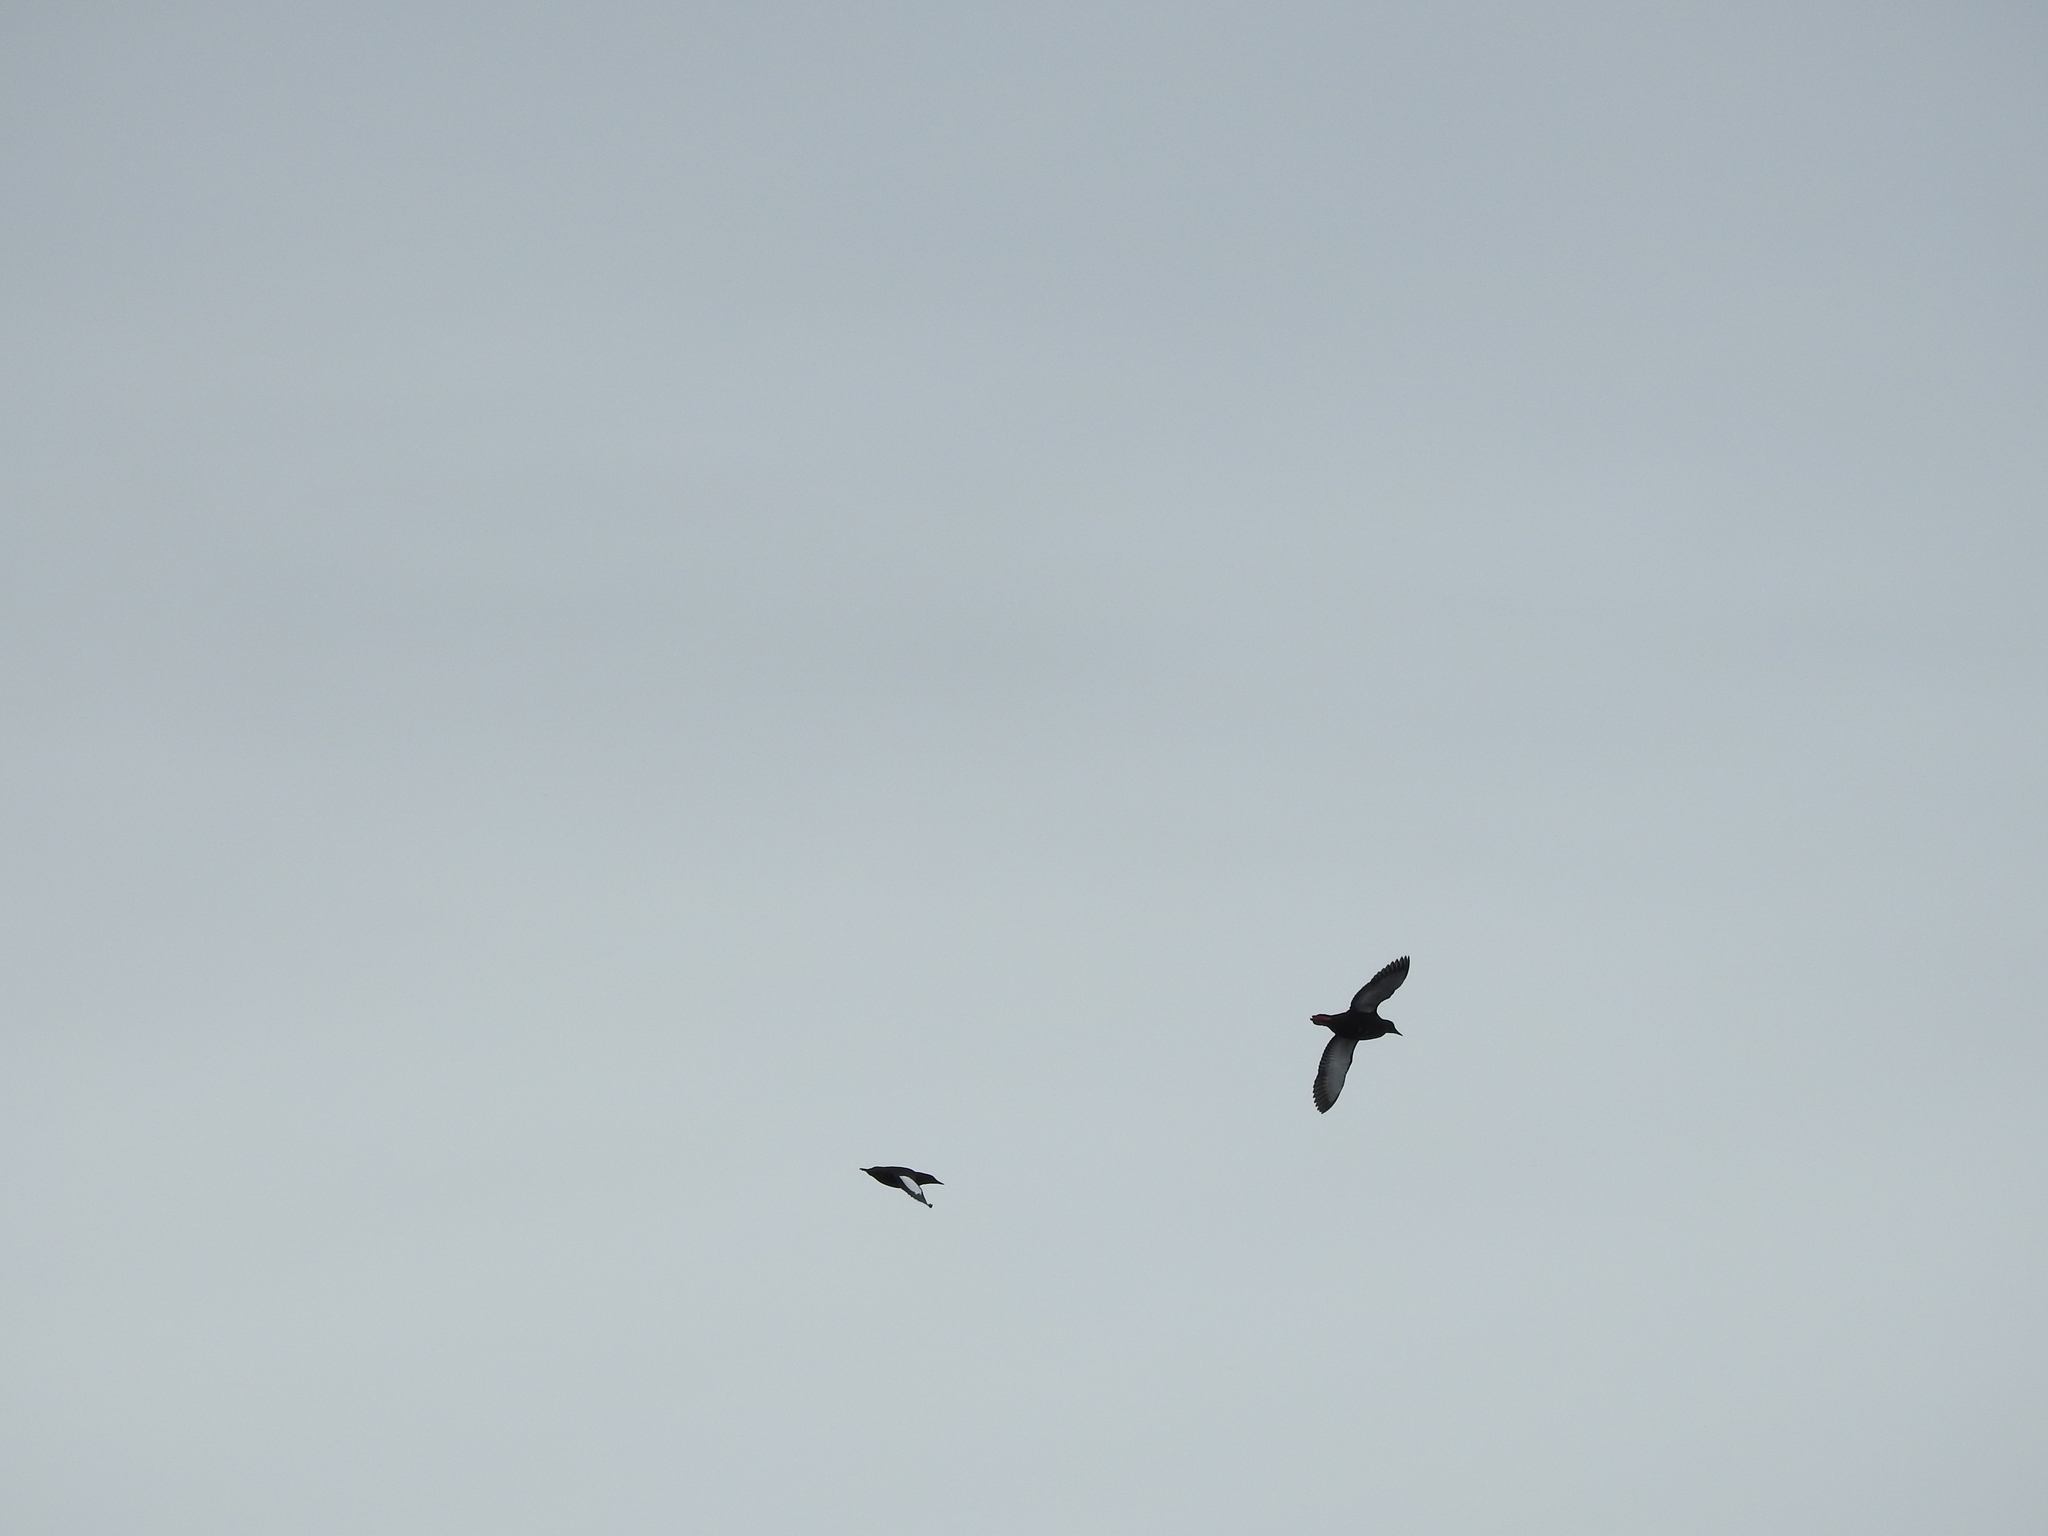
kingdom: Animalia
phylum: Chordata
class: Aves
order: Charadriiformes
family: Alcidae
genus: Cepphus
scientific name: Cepphus grylle
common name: Black guillemot
